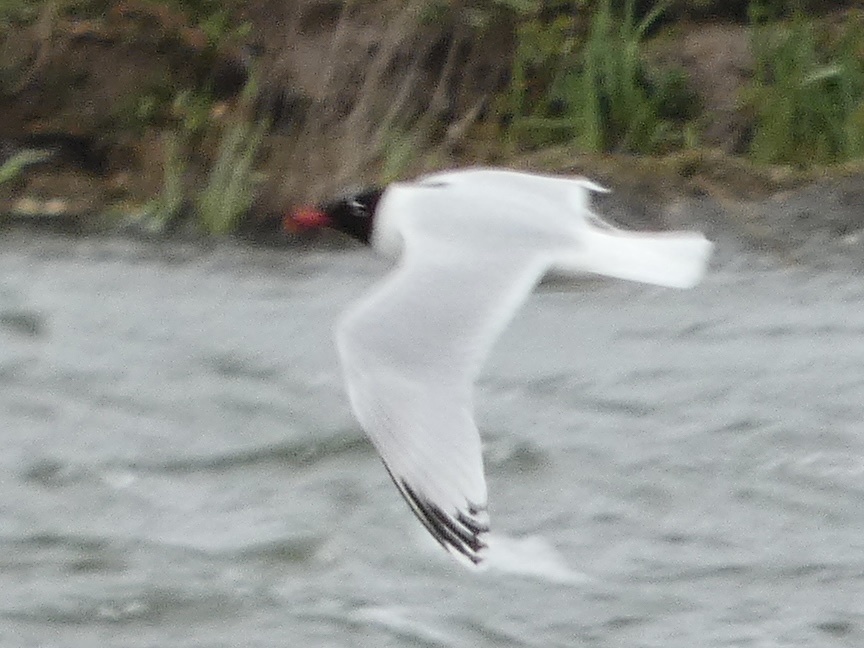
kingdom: Animalia
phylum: Chordata
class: Aves
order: Charadriiformes
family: Laridae
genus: Ichthyaetus
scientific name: Ichthyaetus melanocephalus
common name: Mediterranean gull
